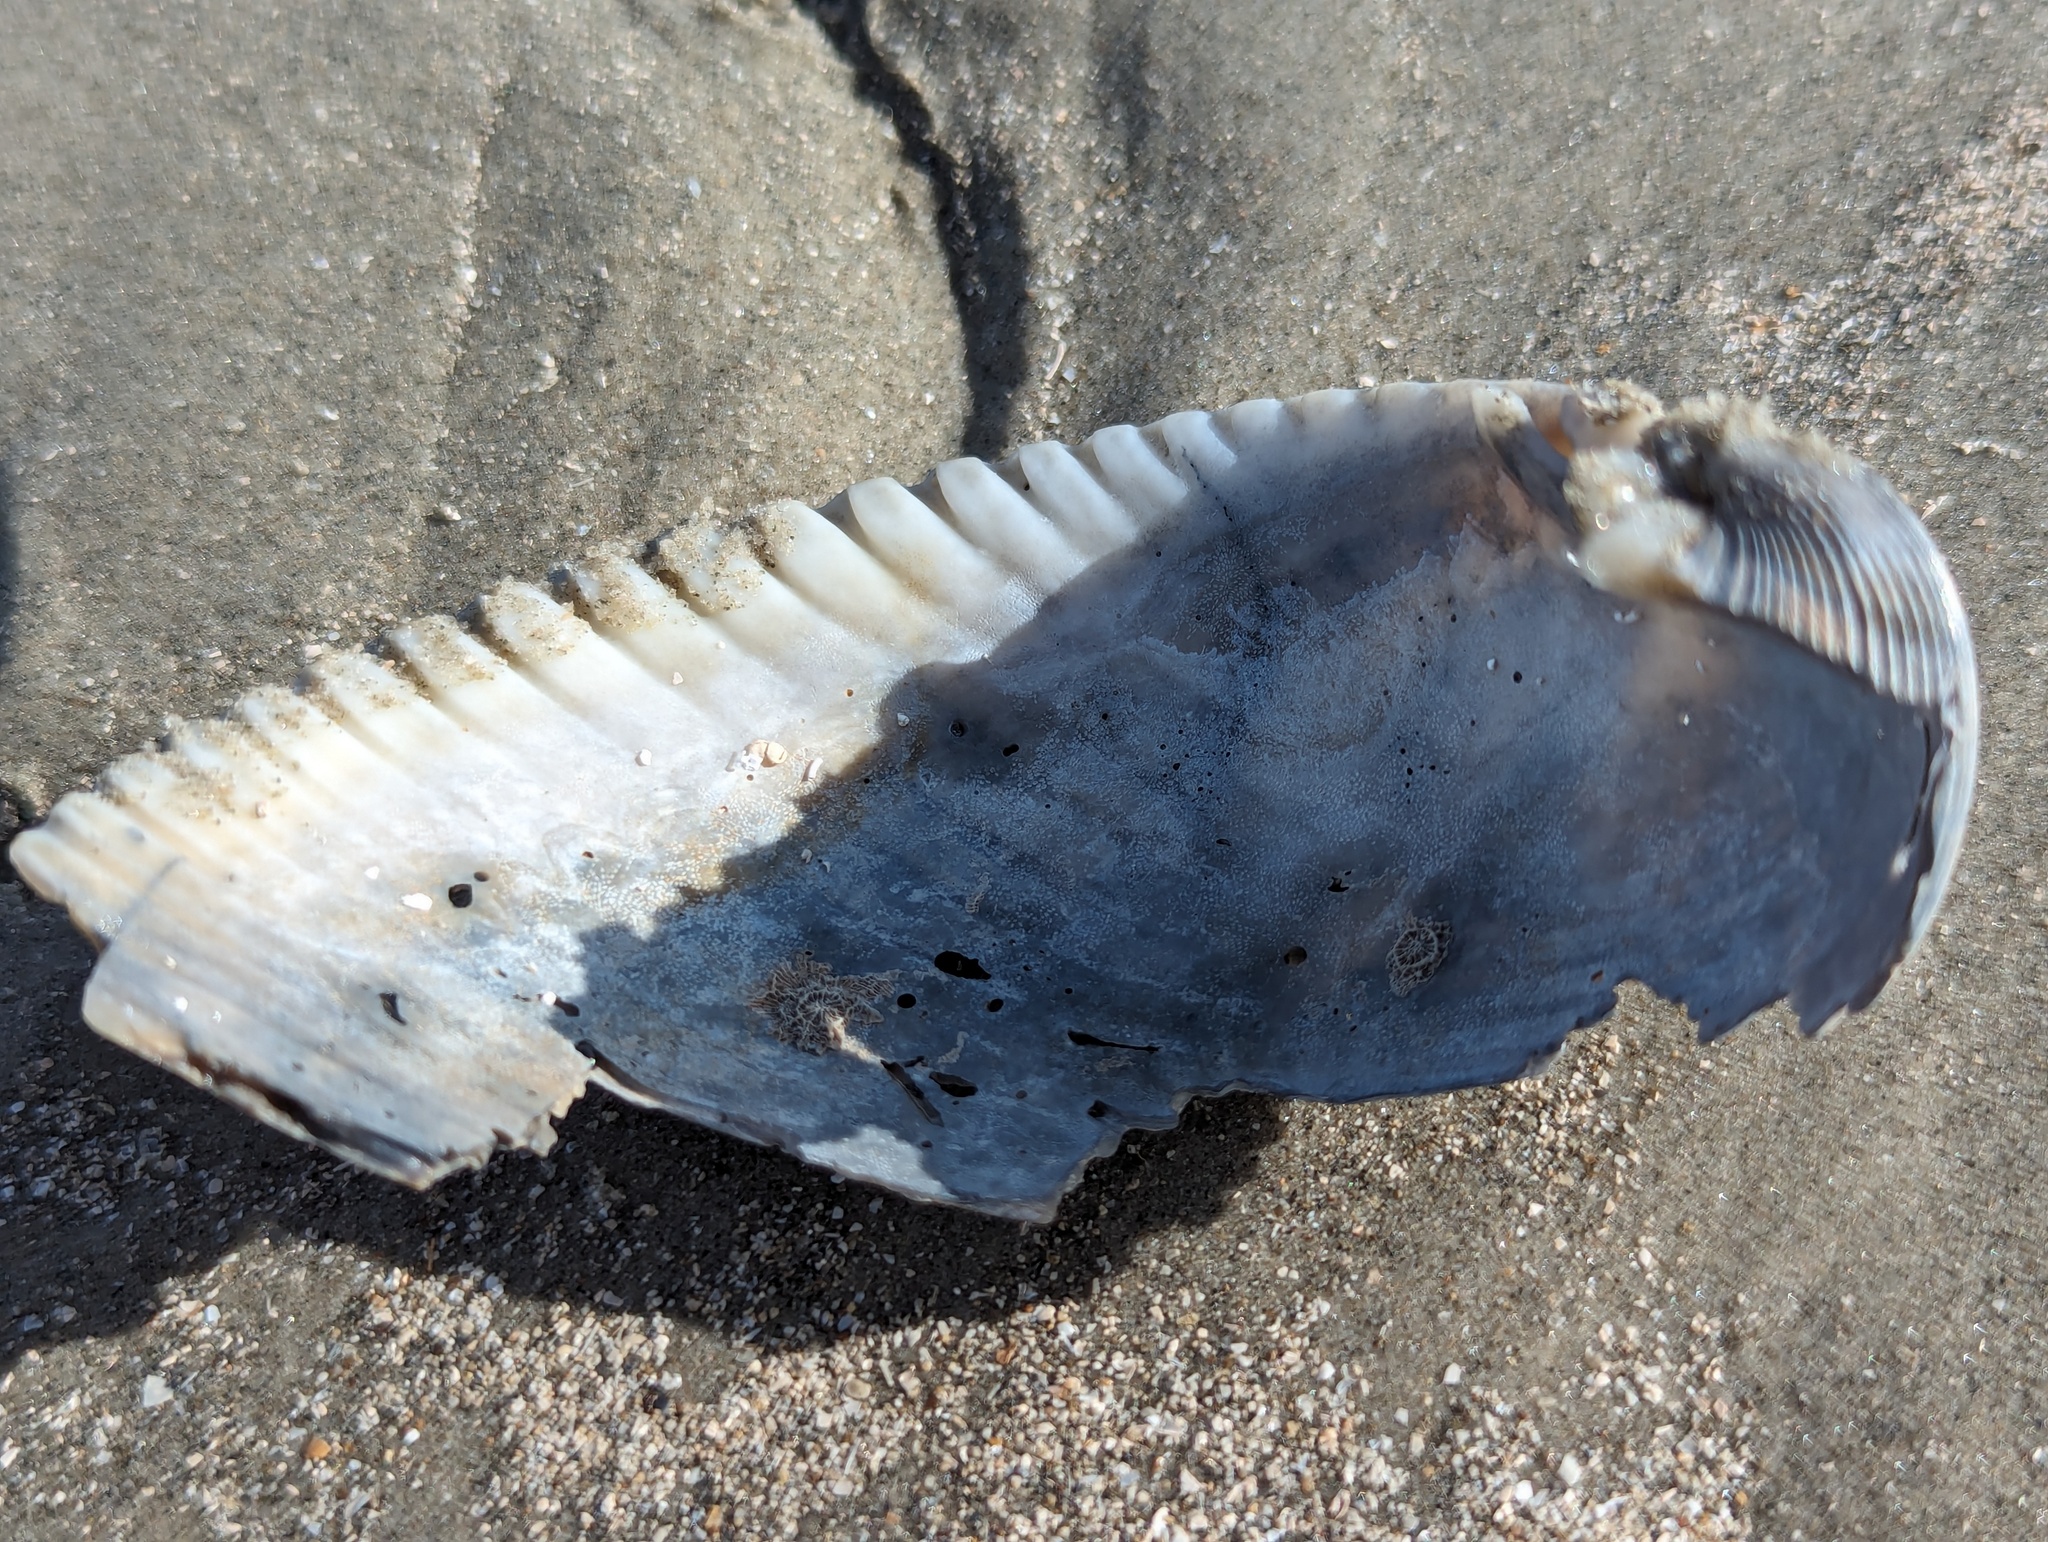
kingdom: Animalia
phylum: Mollusca
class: Bivalvia
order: Cardiida
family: Cardiidae
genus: Dinocardium
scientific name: Dinocardium robustum
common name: Atlantic giant cockle
